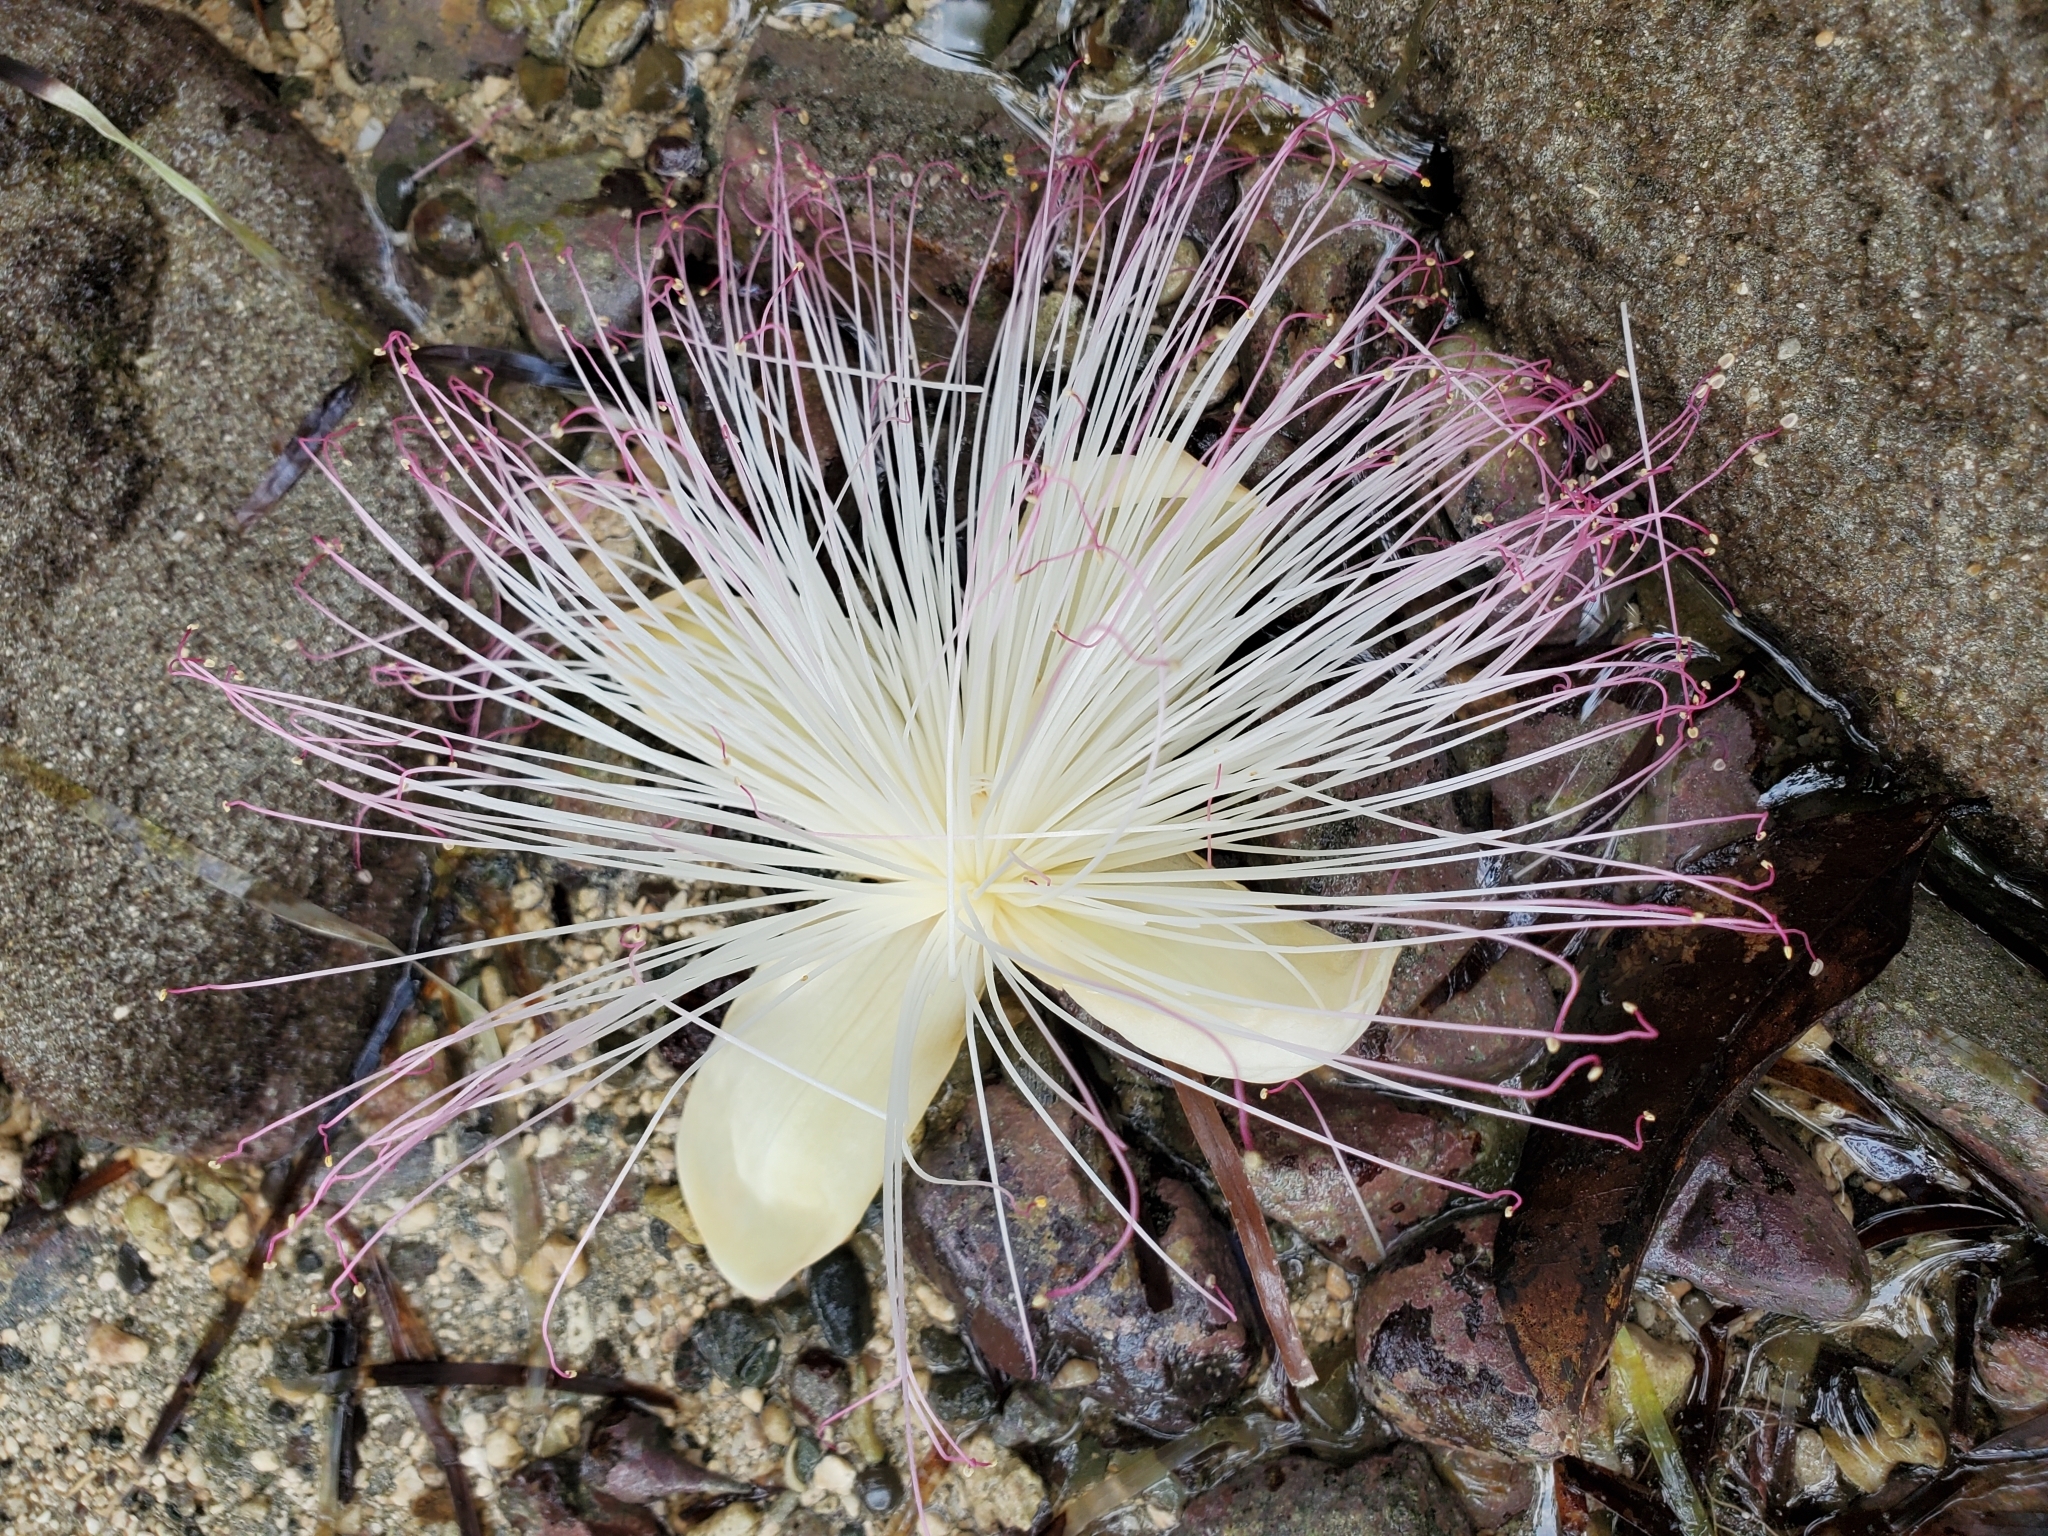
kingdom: Plantae
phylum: Tracheophyta
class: Magnoliopsida
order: Ericales
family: Lecythidaceae
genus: Barringtonia
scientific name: Barringtonia asiatica
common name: Mango-pine
